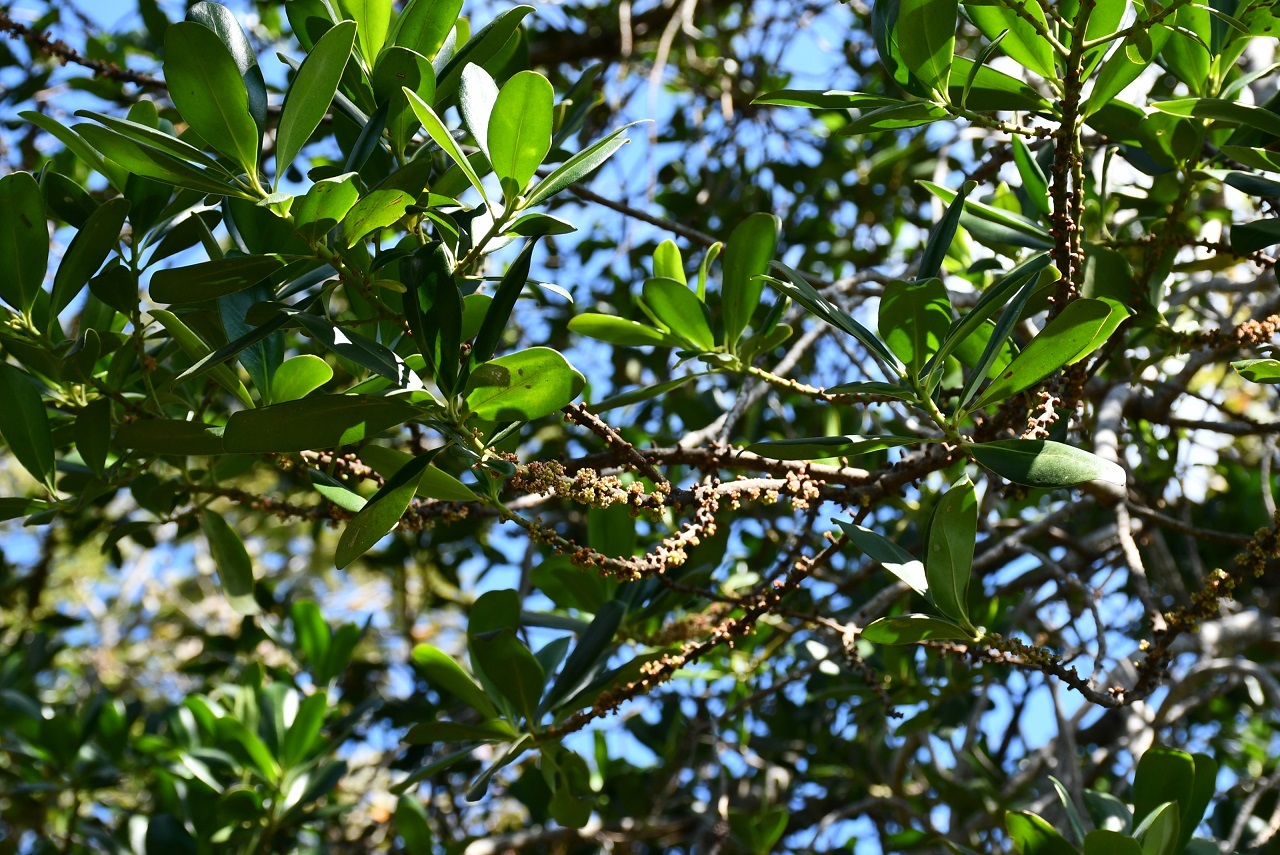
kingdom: Plantae
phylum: Tracheophyta
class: Magnoliopsida
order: Ericales
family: Primulaceae
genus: Myrsine
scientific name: Myrsine juergensenii
